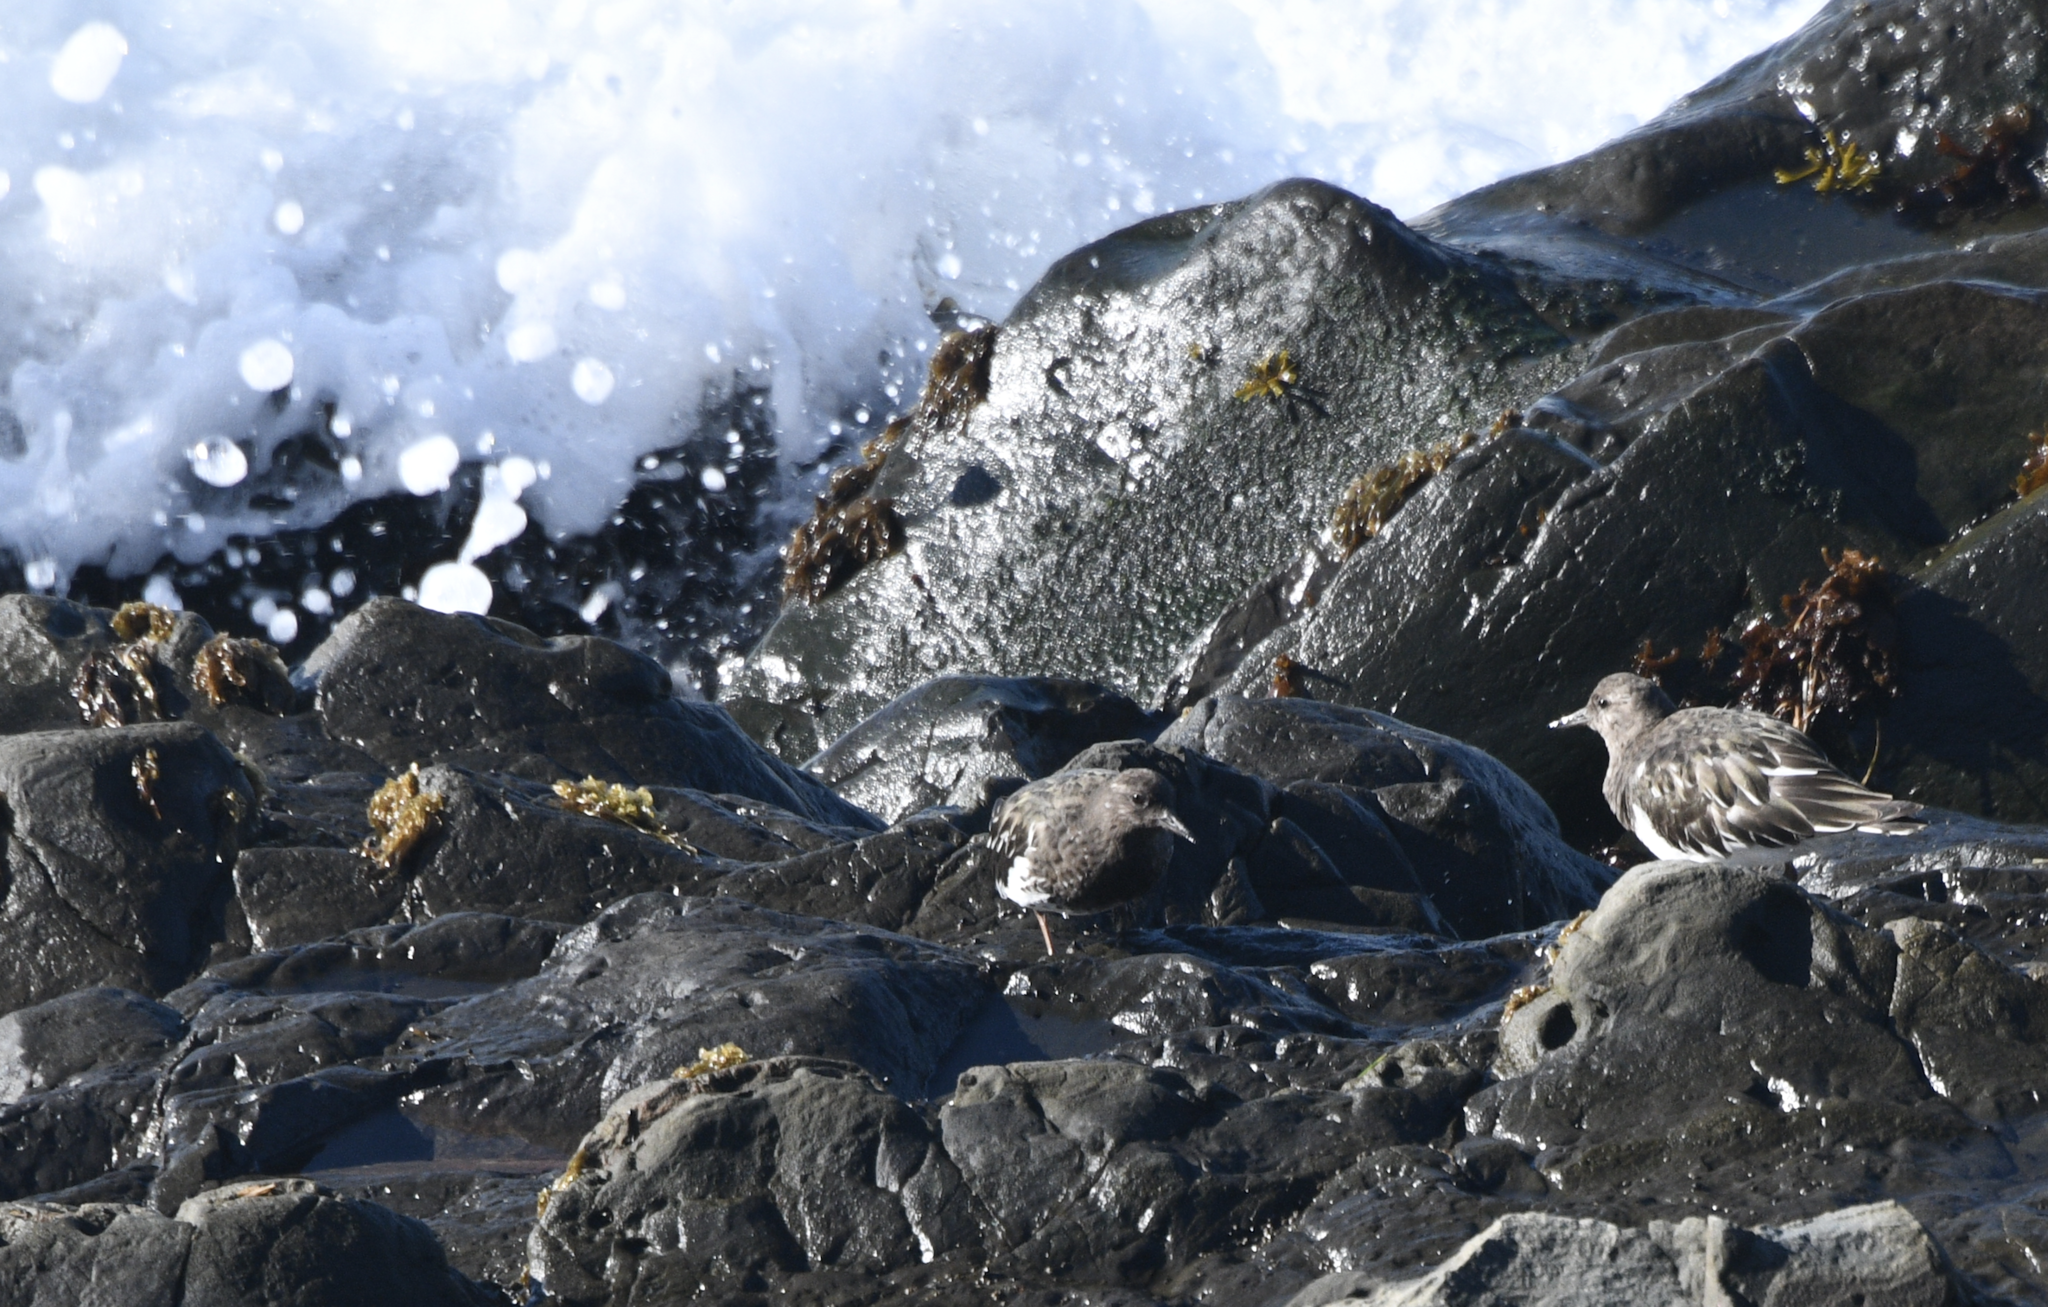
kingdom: Animalia
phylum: Chordata
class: Aves
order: Charadriiformes
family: Scolopacidae
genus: Arenaria
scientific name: Arenaria melanocephala
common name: Black turnstone
